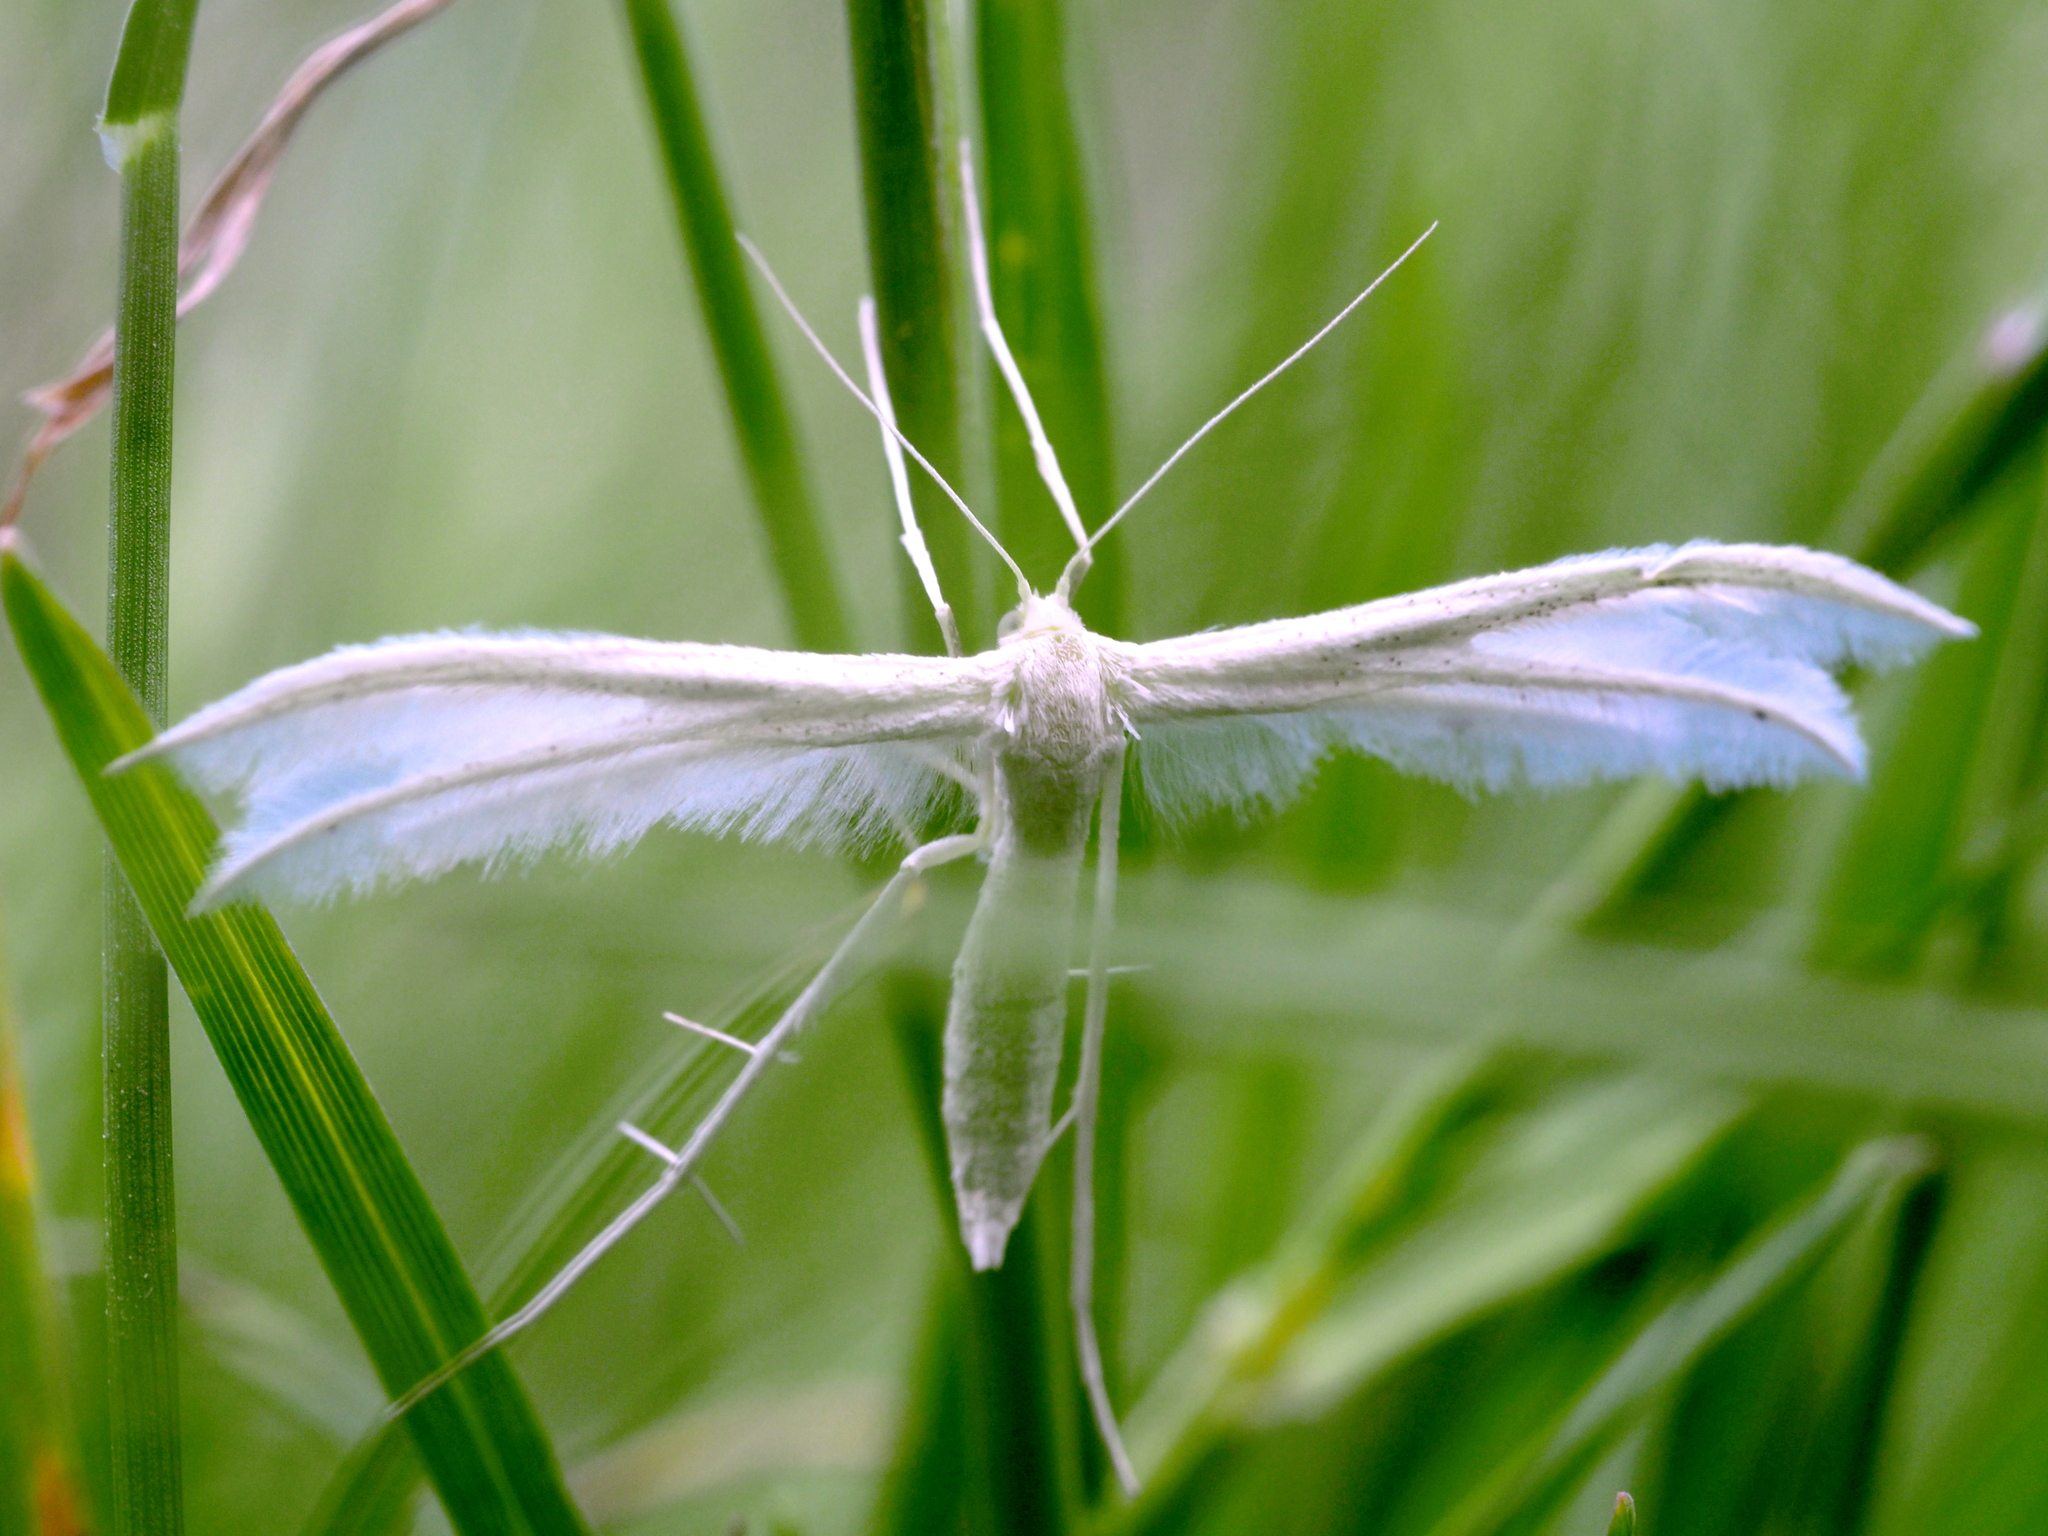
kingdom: Animalia
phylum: Arthropoda
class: Insecta
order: Lepidoptera
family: Pterophoridae
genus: Pterophorus
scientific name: Pterophorus pentadactyla
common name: White plume moth
